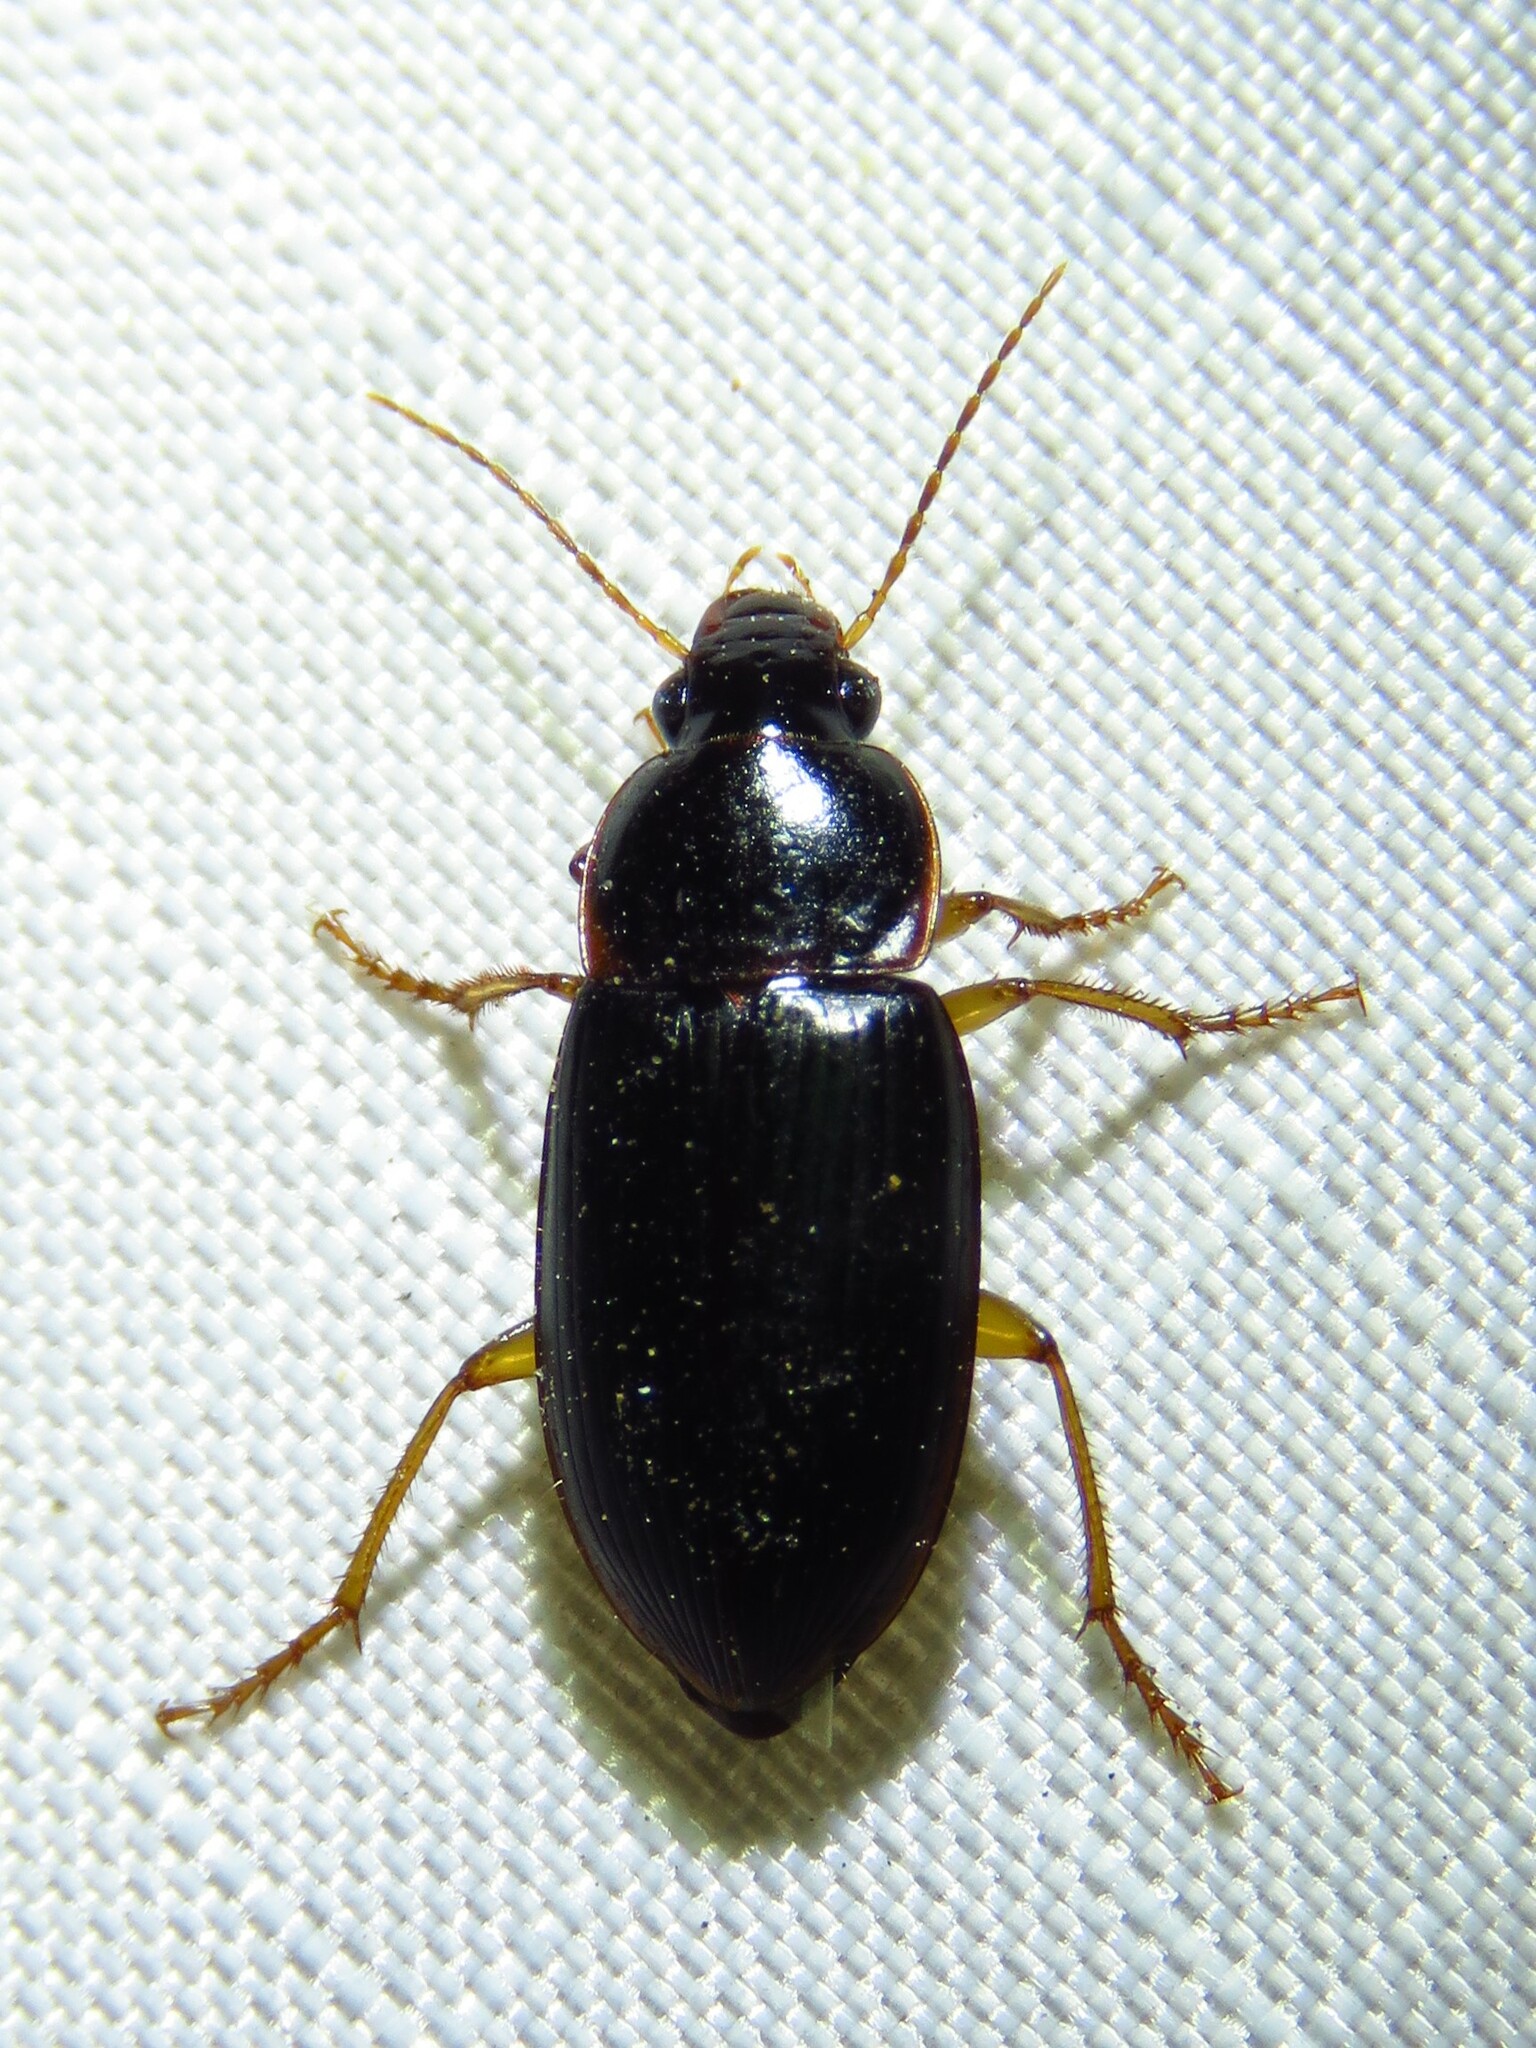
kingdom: Animalia
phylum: Arthropoda
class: Insecta
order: Coleoptera
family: Carabidae
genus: Notiobia
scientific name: Notiobia terminata
